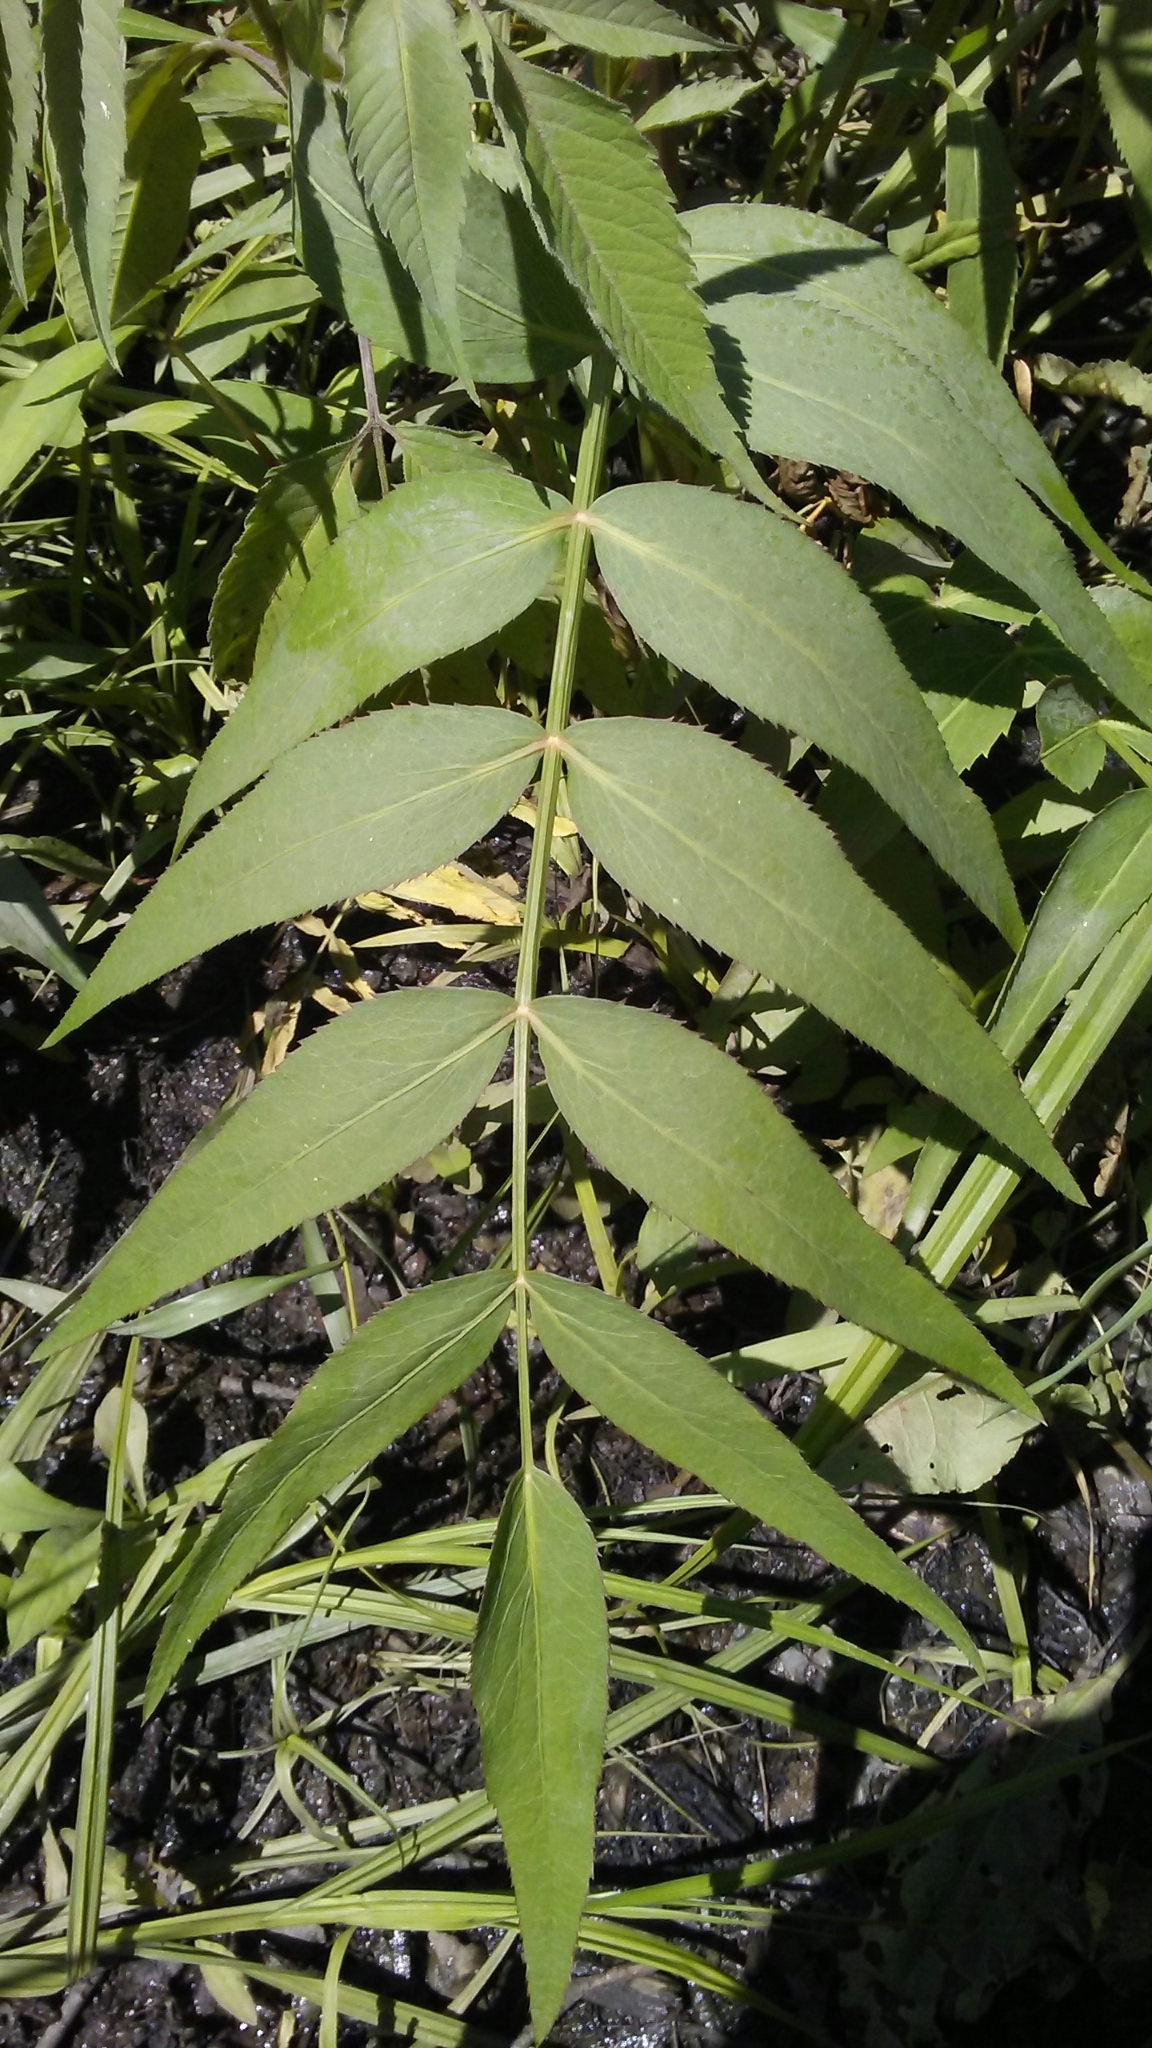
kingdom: Plantae
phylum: Tracheophyta
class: Magnoliopsida
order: Apiales
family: Apiaceae
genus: Sium
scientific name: Sium suave
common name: Hemlock water-parsnip
